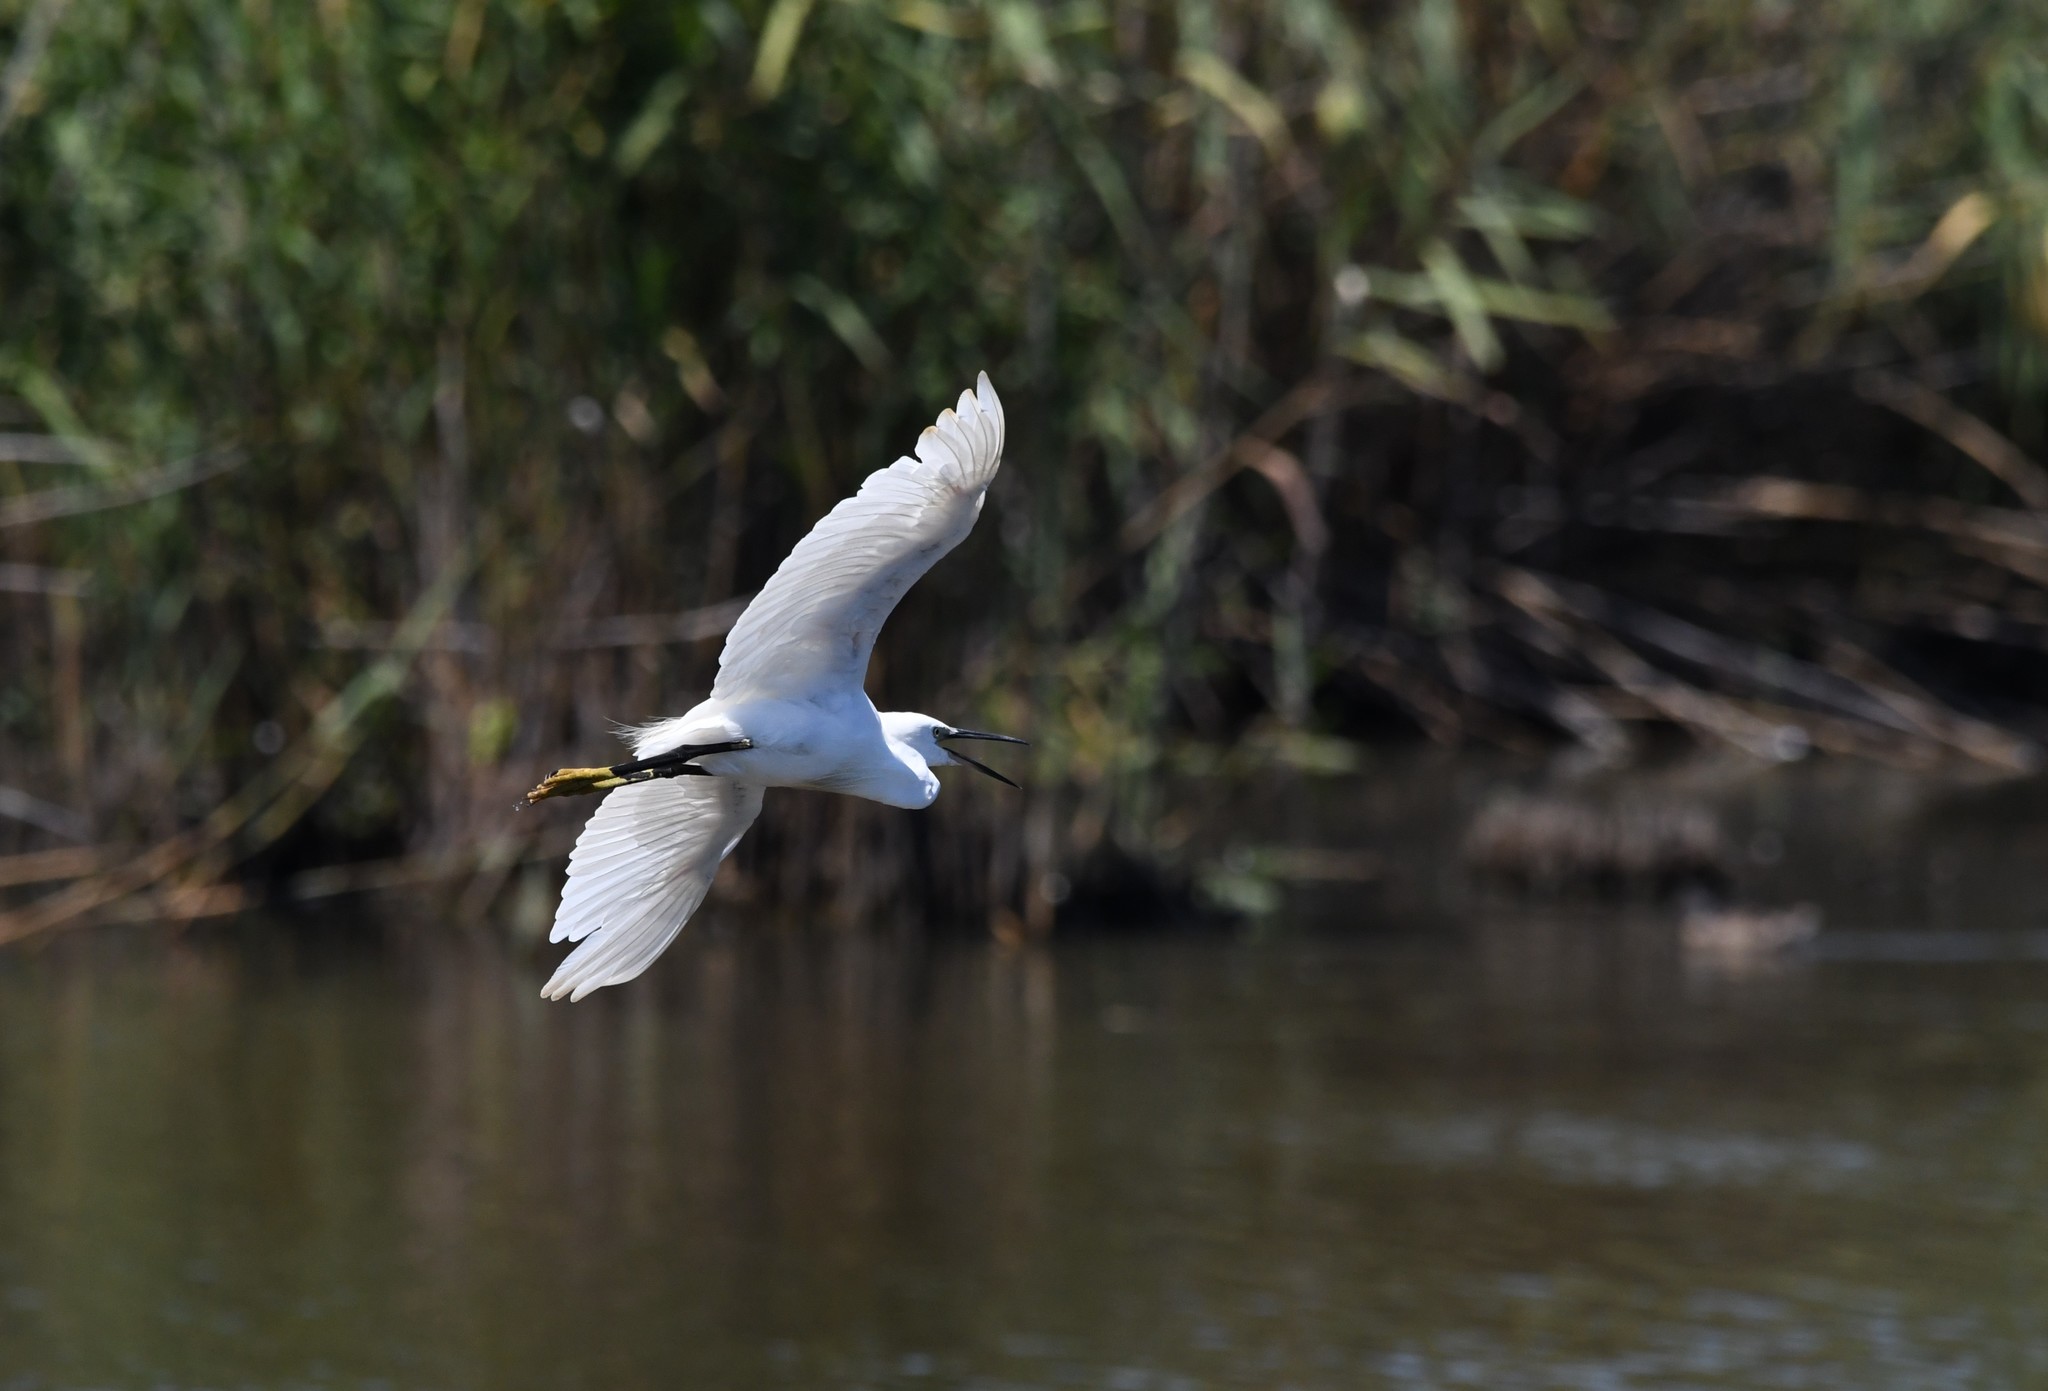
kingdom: Animalia
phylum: Chordata
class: Aves
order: Pelecaniformes
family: Ardeidae
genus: Egretta
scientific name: Egretta garzetta
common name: Little egret
